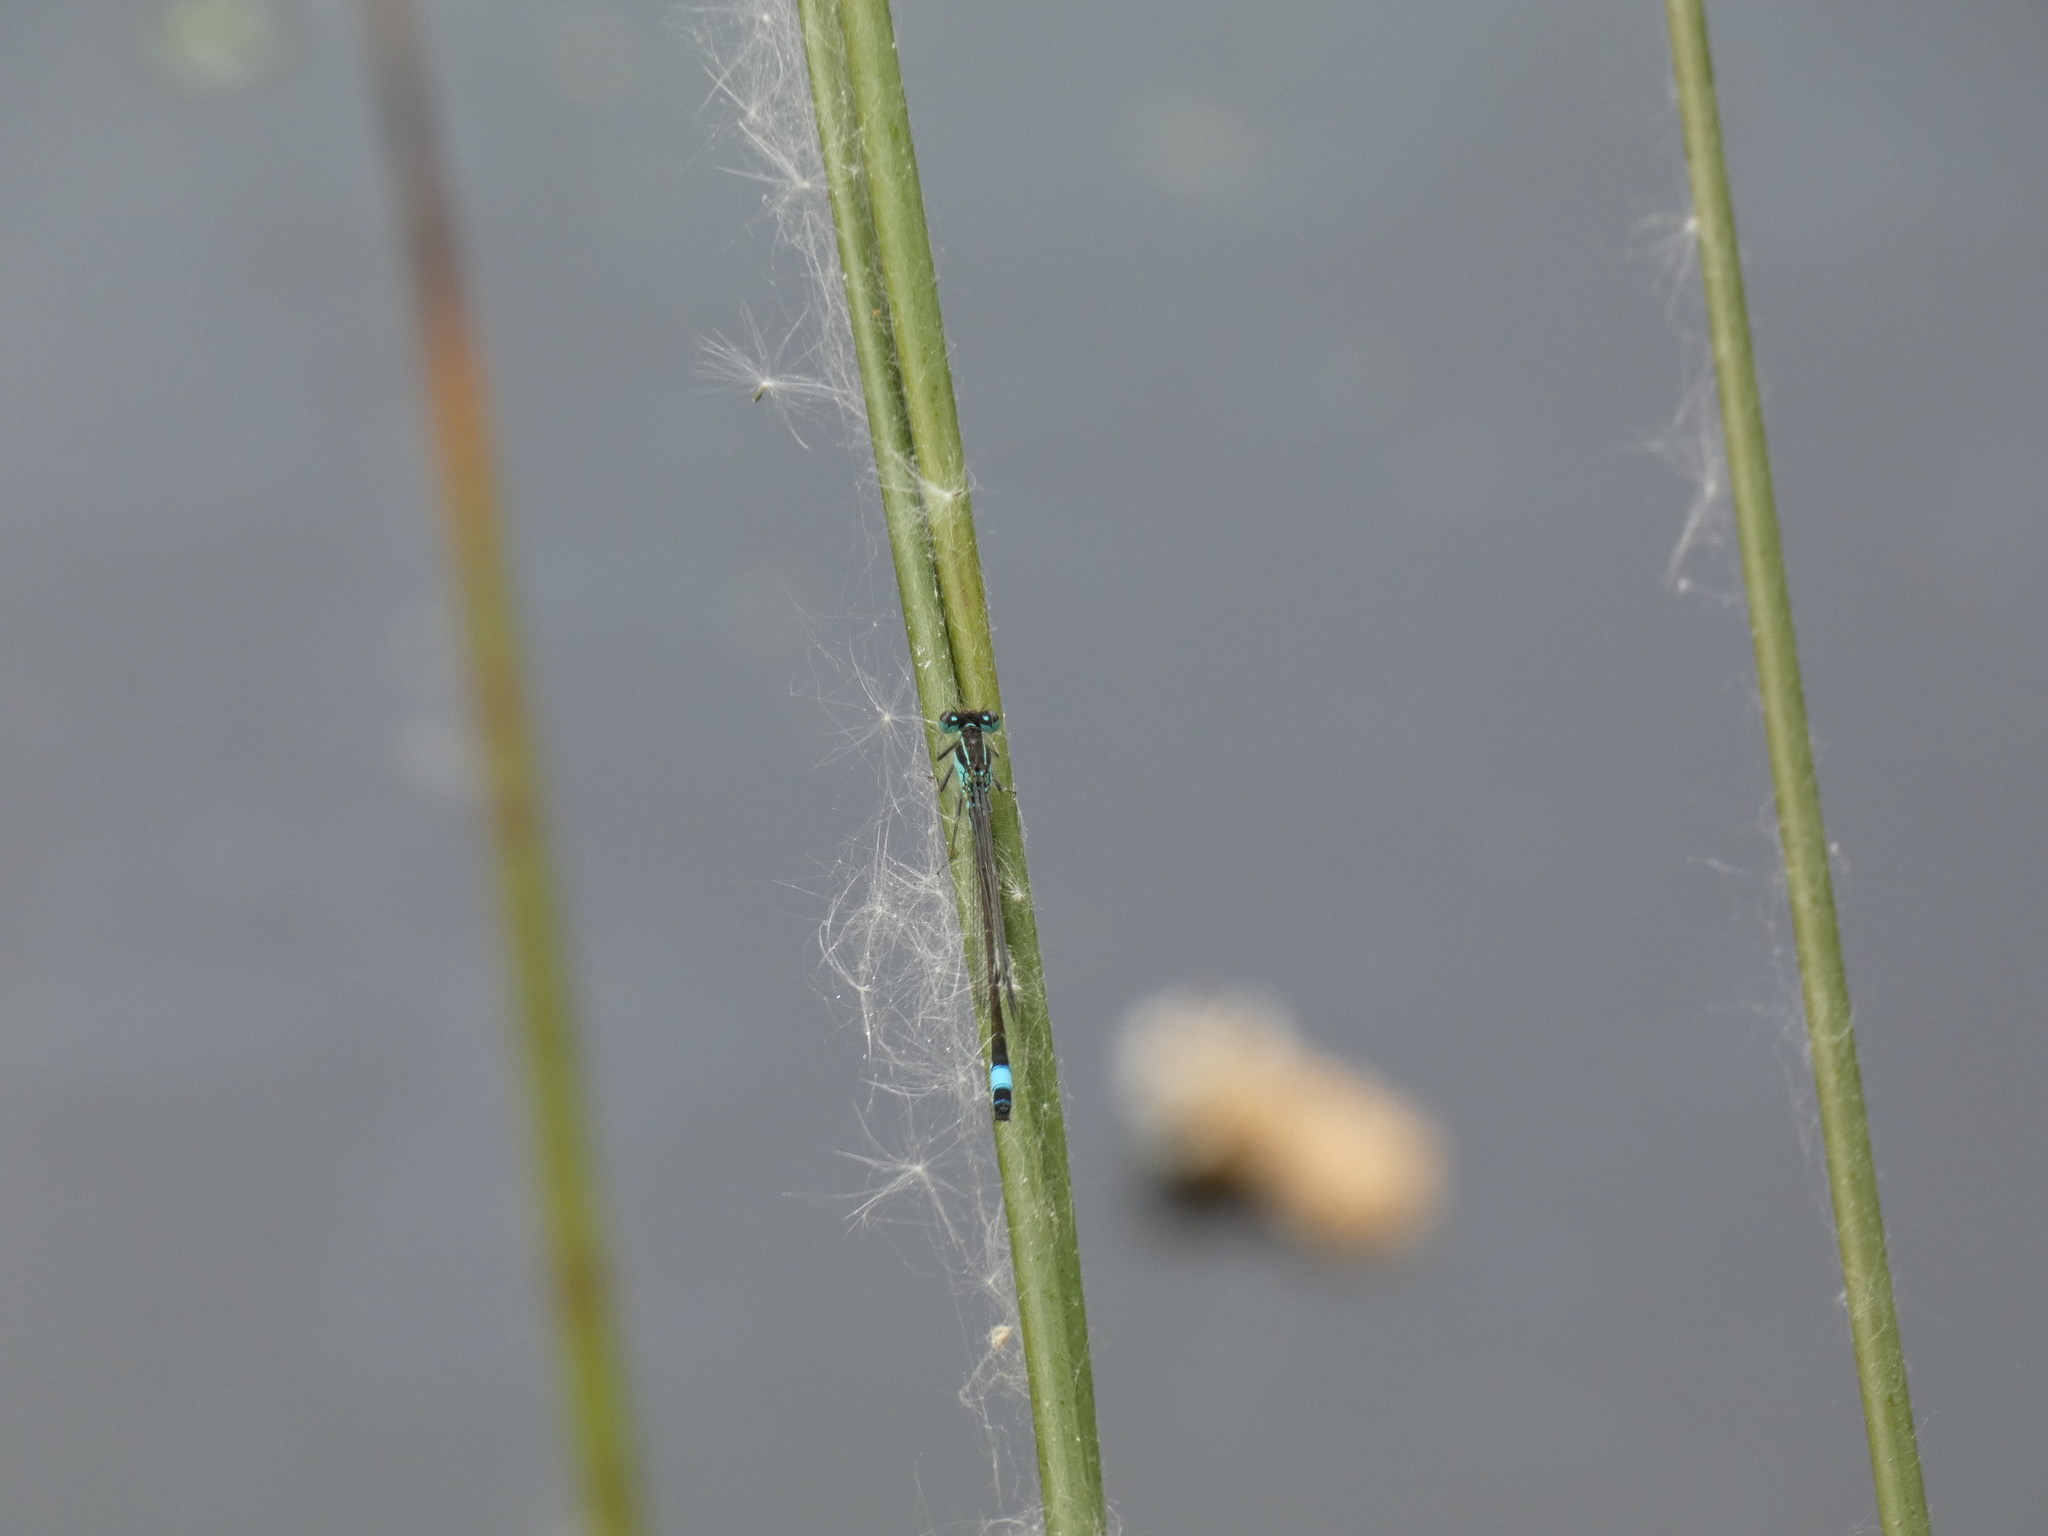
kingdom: Animalia
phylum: Arthropoda
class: Insecta
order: Odonata
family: Coenagrionidae
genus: Ischnura
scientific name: Ischnura elegans
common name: Blue-tailed damselfly
